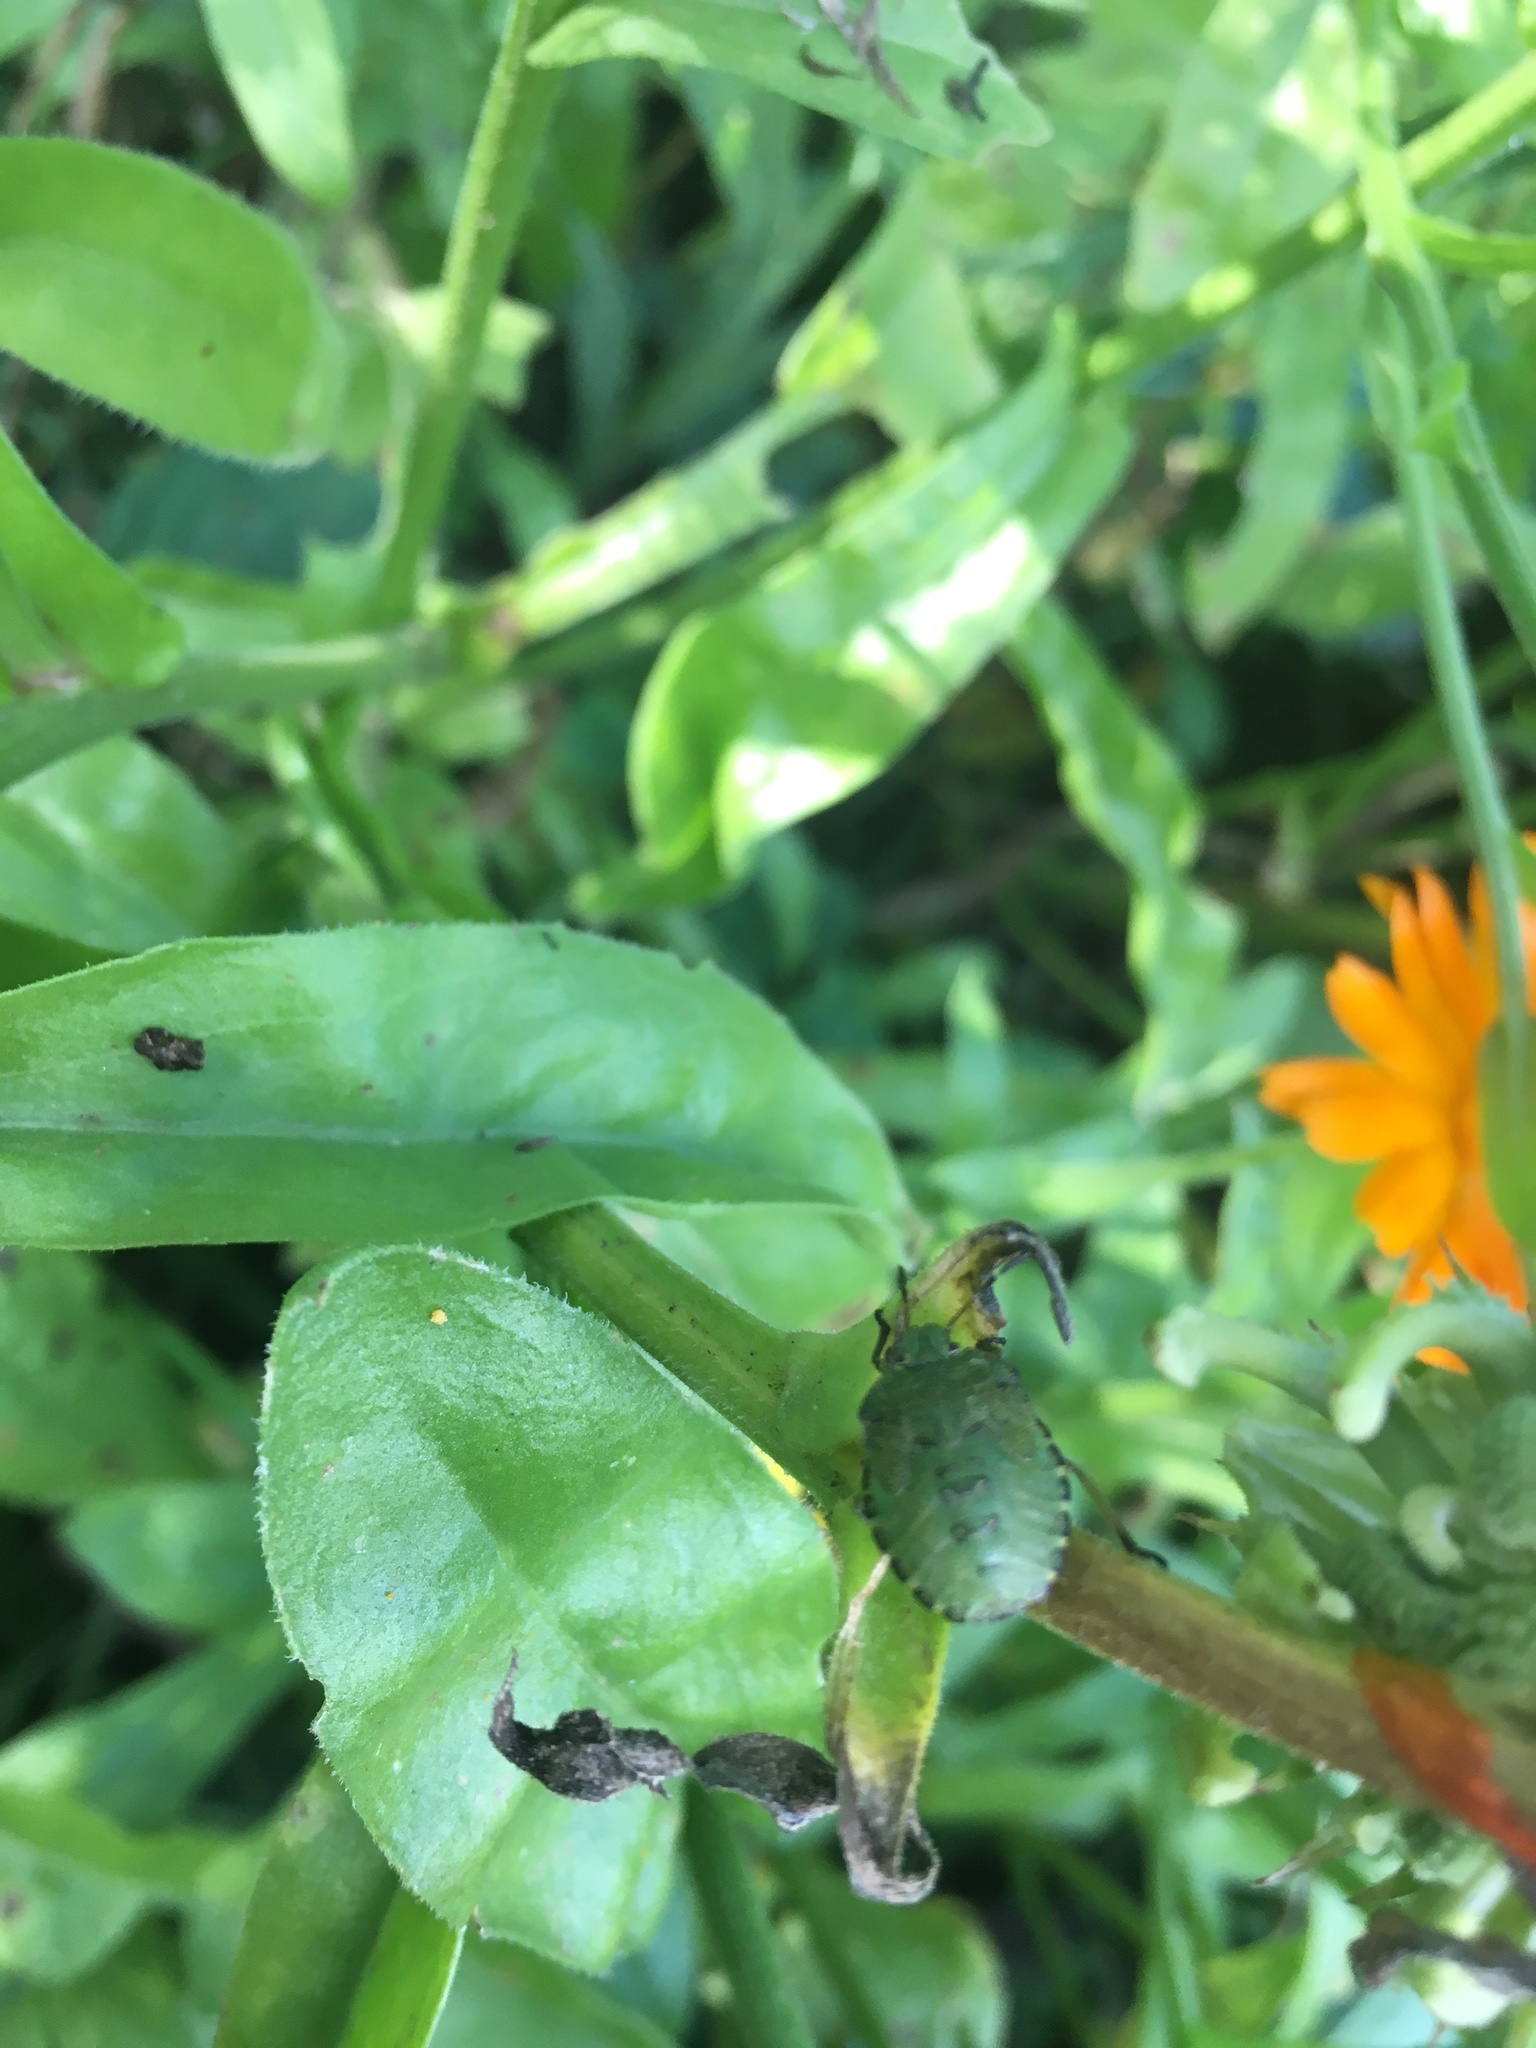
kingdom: Animalia
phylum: Arthropoda
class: Insecta
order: Hemiptera
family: Pentatomidae
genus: Palomena
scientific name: Palomena prasina
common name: Green shieldbug
